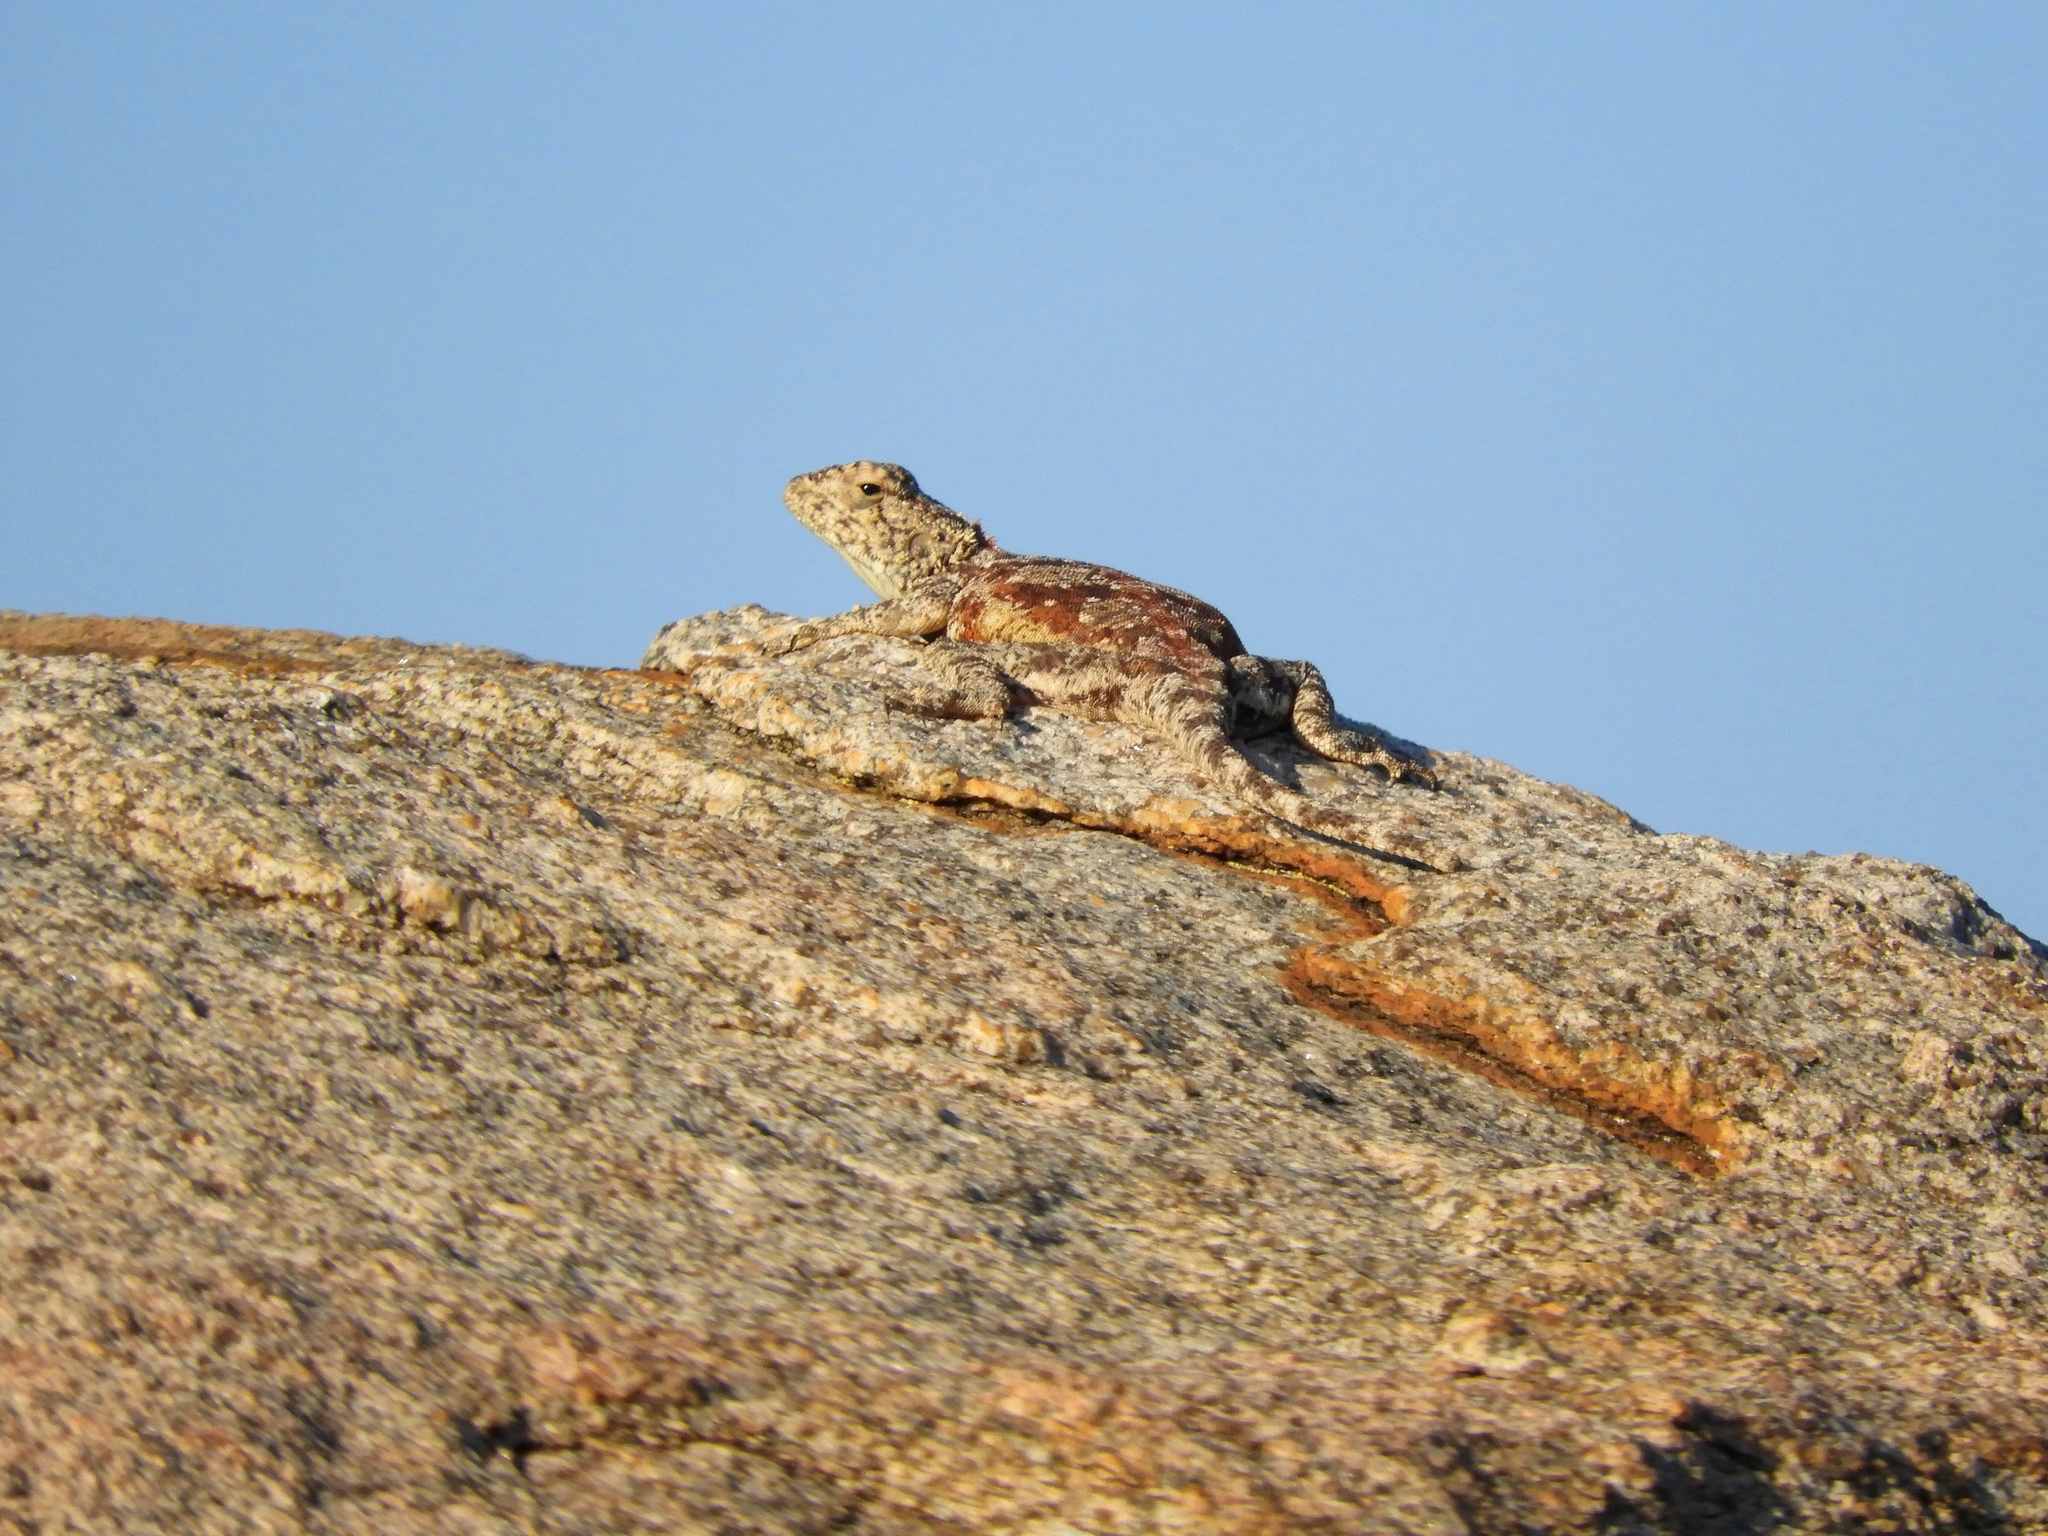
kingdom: Animalia
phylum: Chordata
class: Squamata
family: Agamidae
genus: Agama
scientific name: Agama atra
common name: Southern african rock agama
